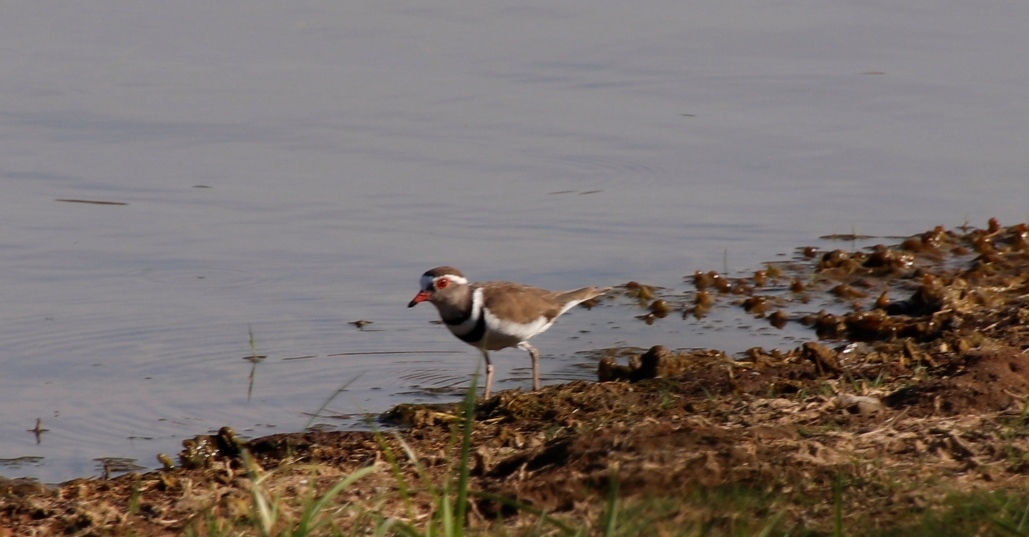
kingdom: Animalia
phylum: Chordata
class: Aves
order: Charadriiformes
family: Charadriidae
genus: Charadrius
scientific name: Charadrius tricollaris
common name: Three-banded plover
